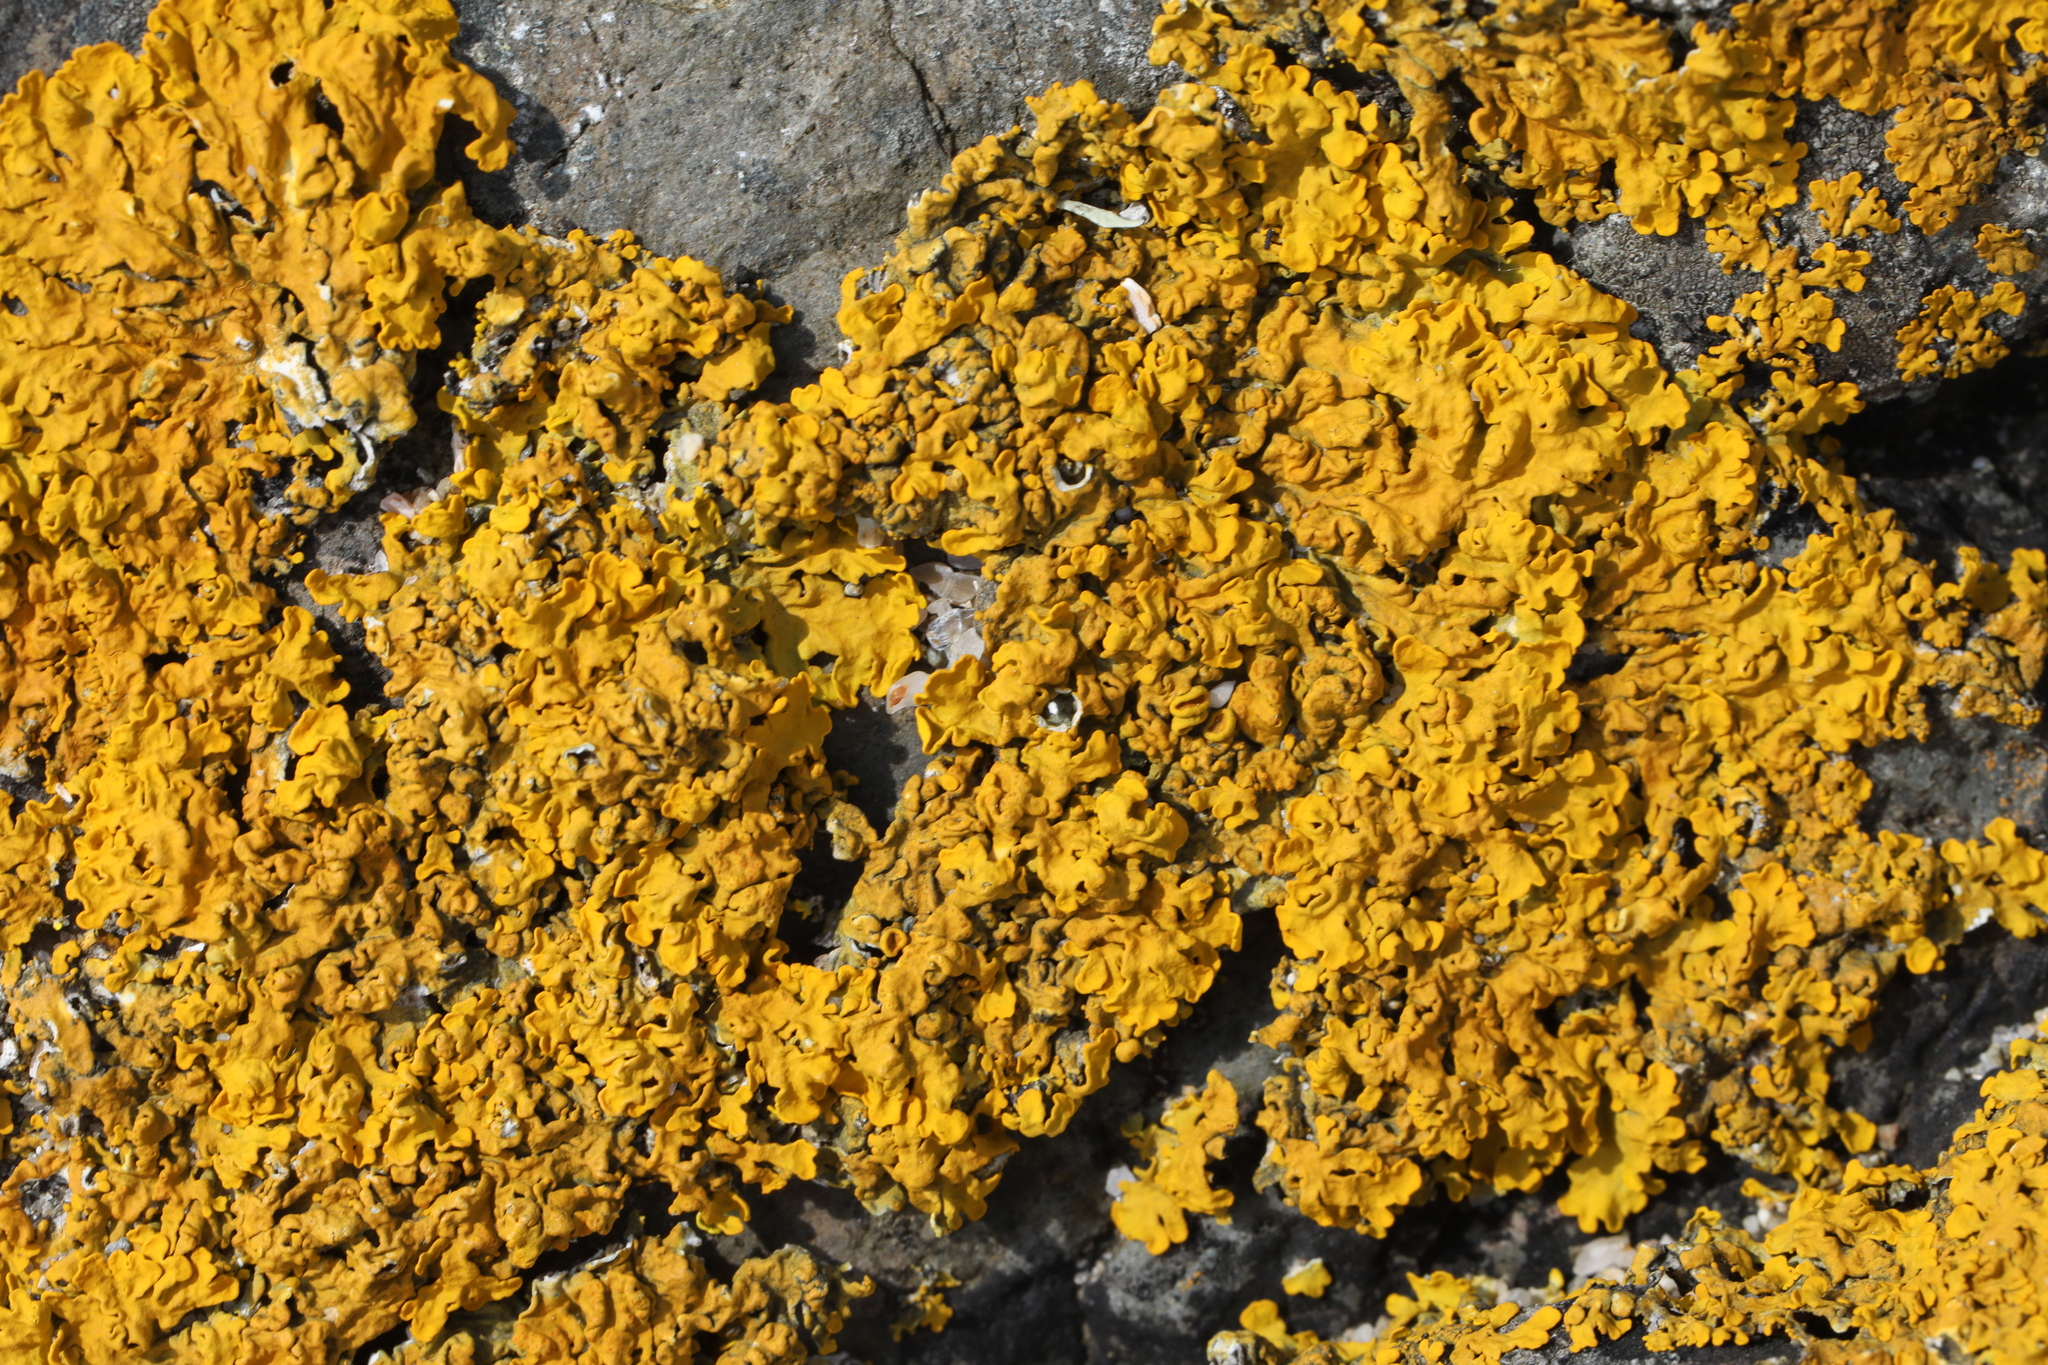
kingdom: Fungi
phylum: Ascomycota
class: Lecanoromycetes
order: Teloschistales
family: Teloschistaceae
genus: Xanthoria
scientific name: Xanthoria parietina
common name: Common orange lichen
